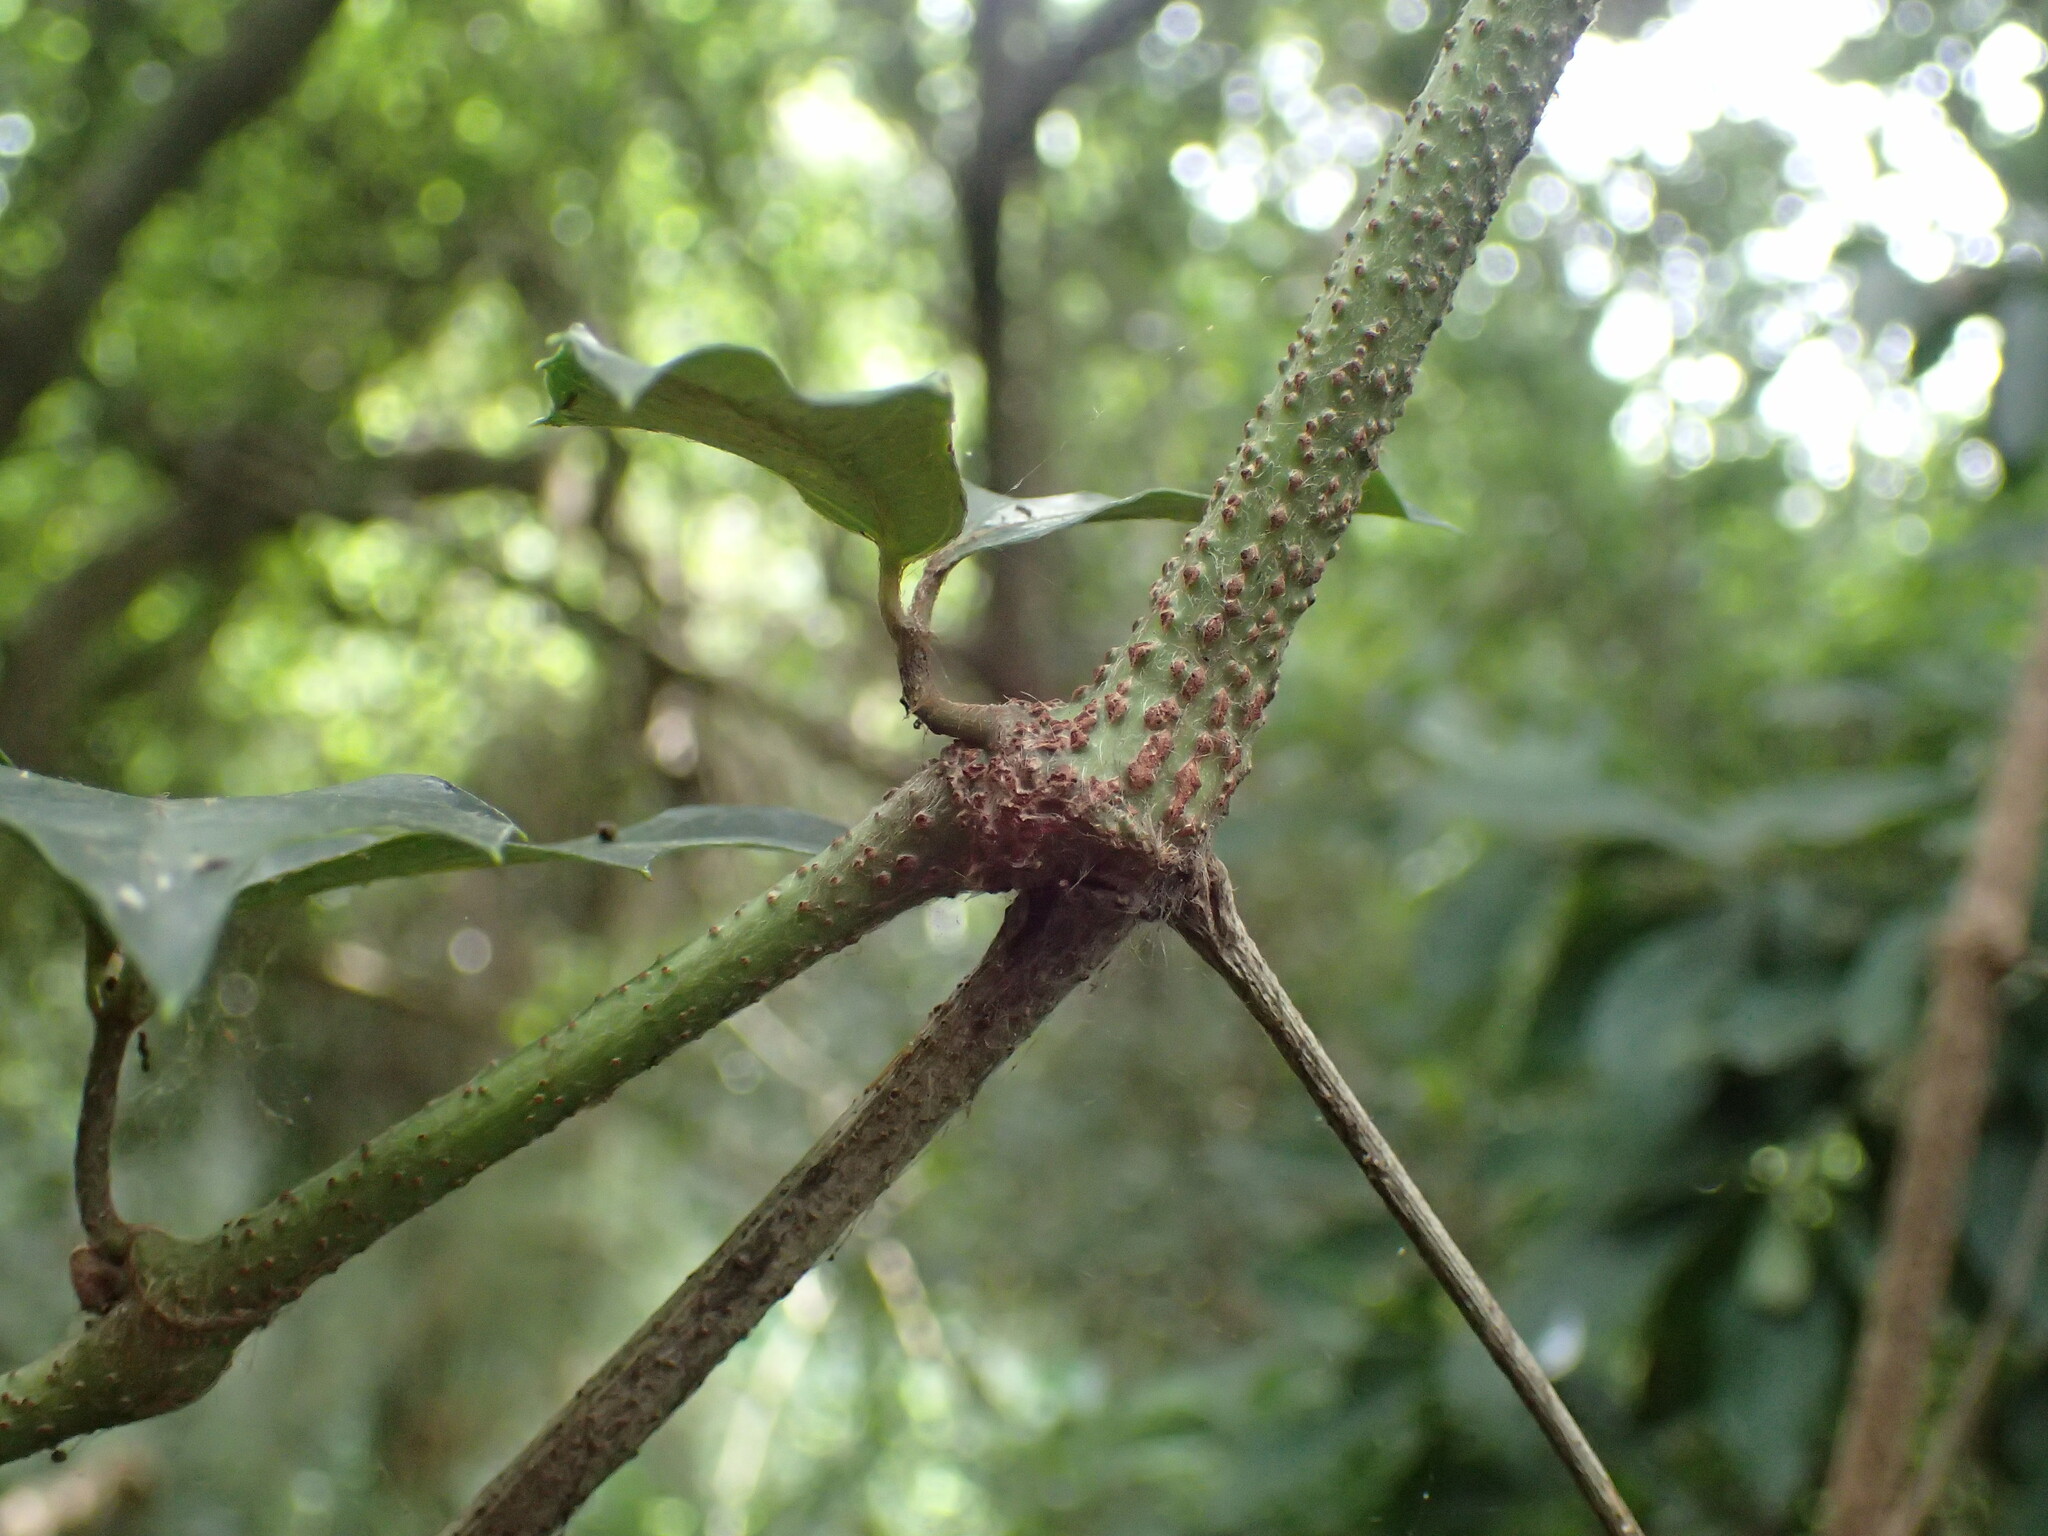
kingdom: Plantae
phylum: Tracheophyta
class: Magnoliopsida
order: Vitales
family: Vitaceae
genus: Rhoicissus
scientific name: Rhoicissus rhomboidea
